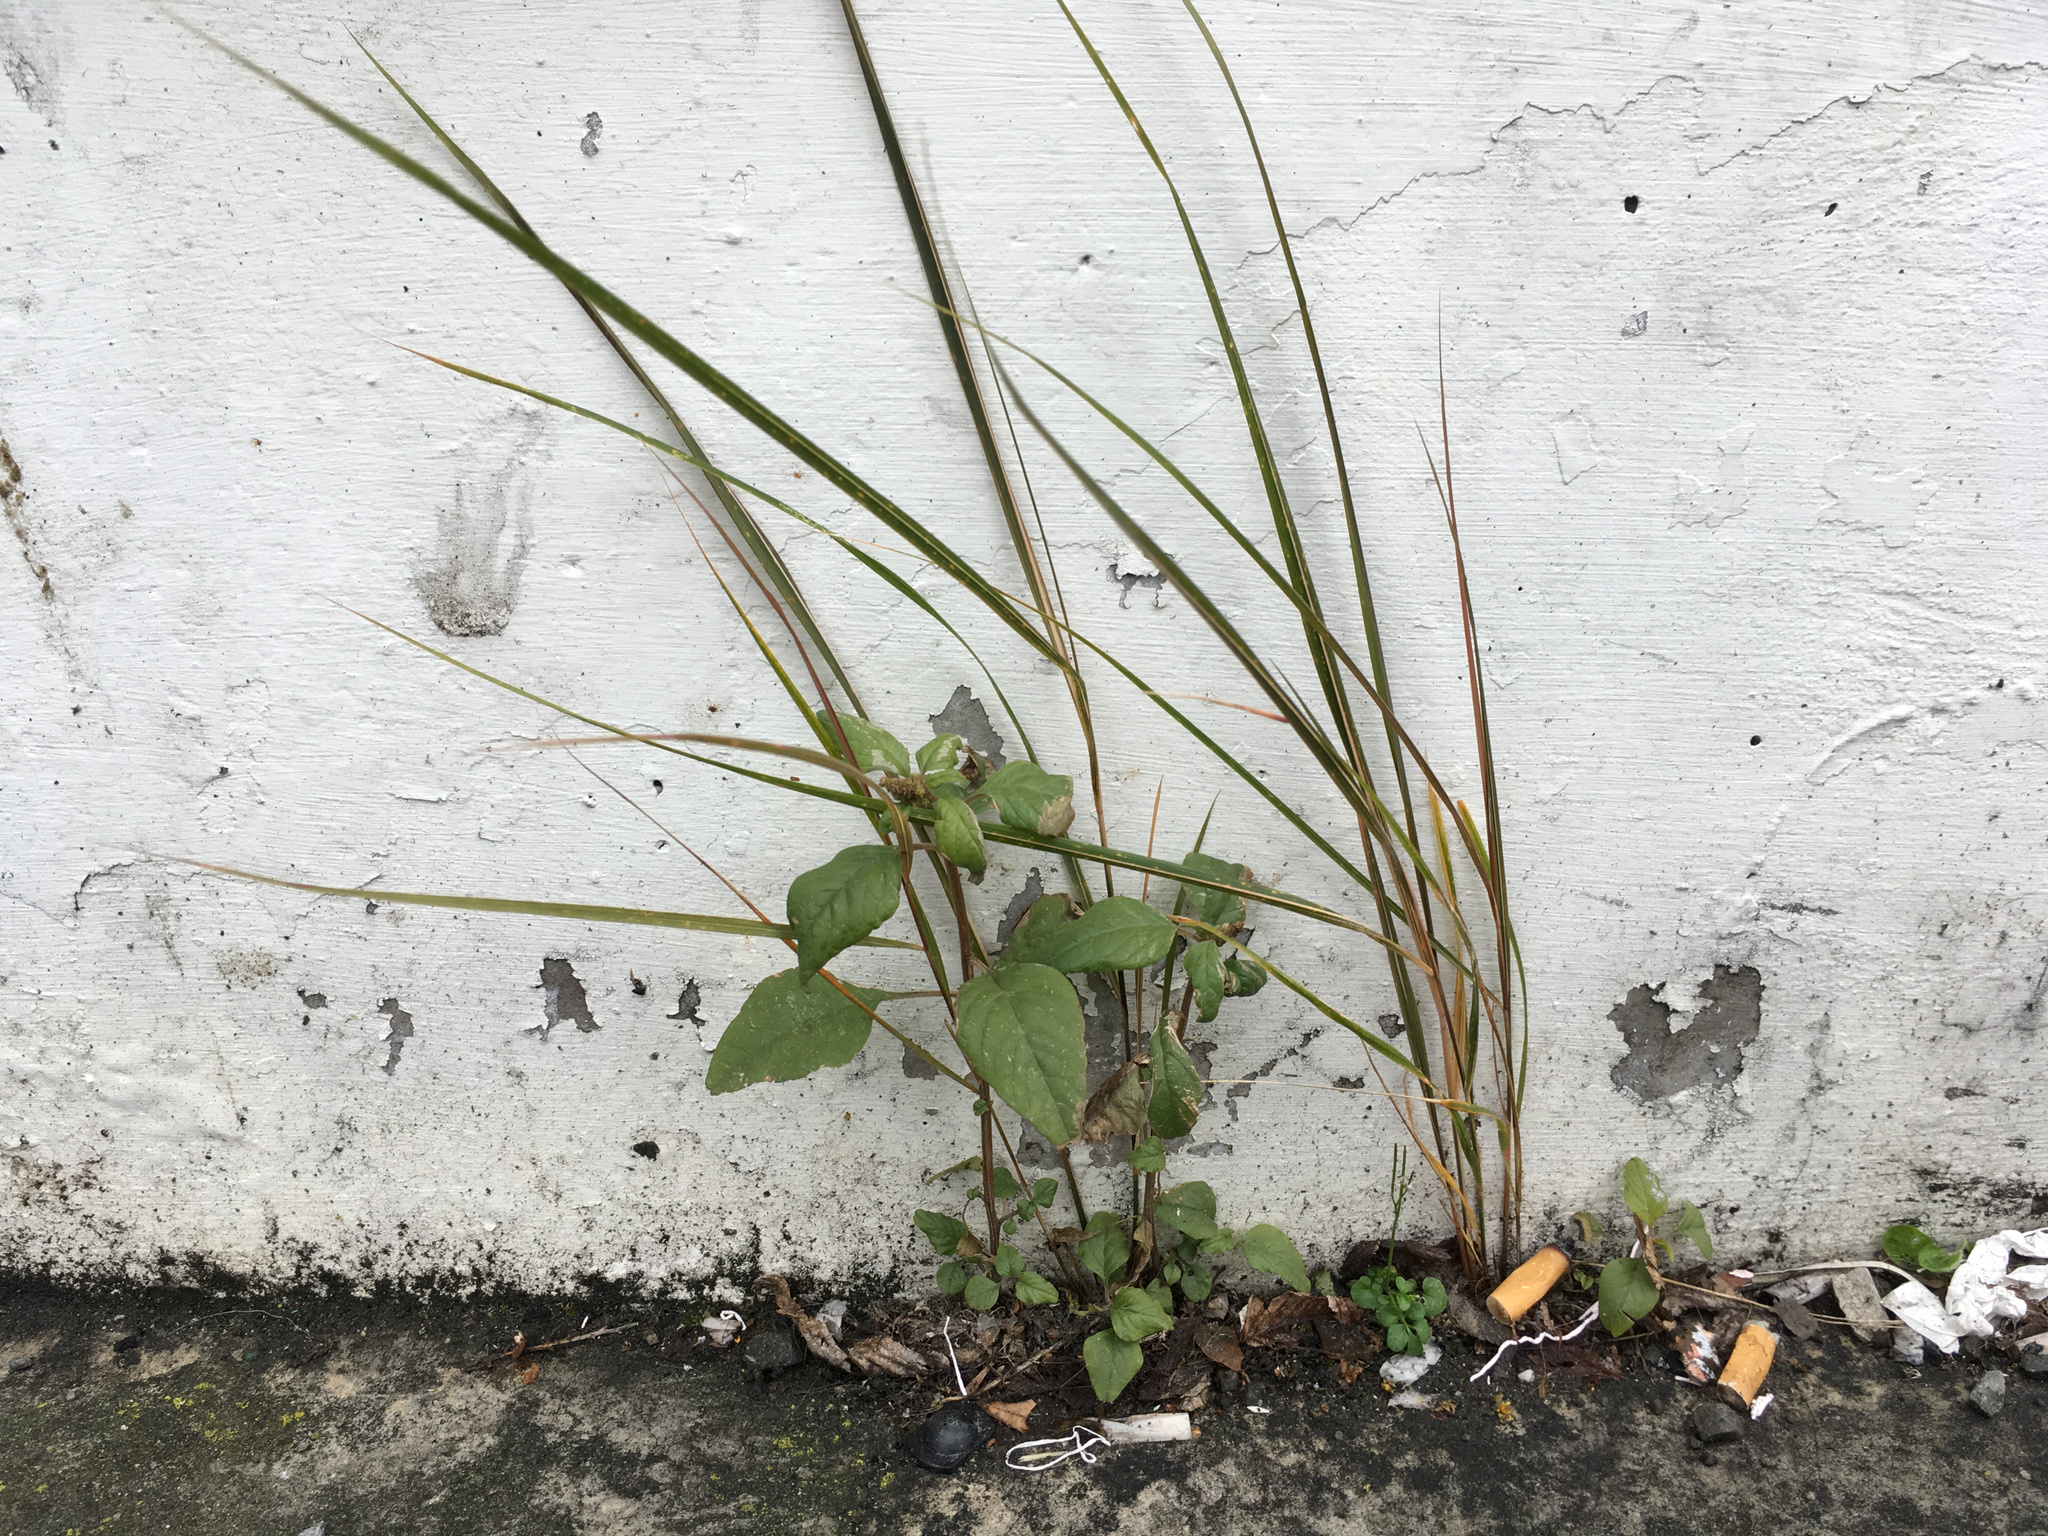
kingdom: Plantae
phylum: Tracheophyta
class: Liliopsida
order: Poales
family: Poaceae
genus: Anemanthele
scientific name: Anemanthele lessoniana
